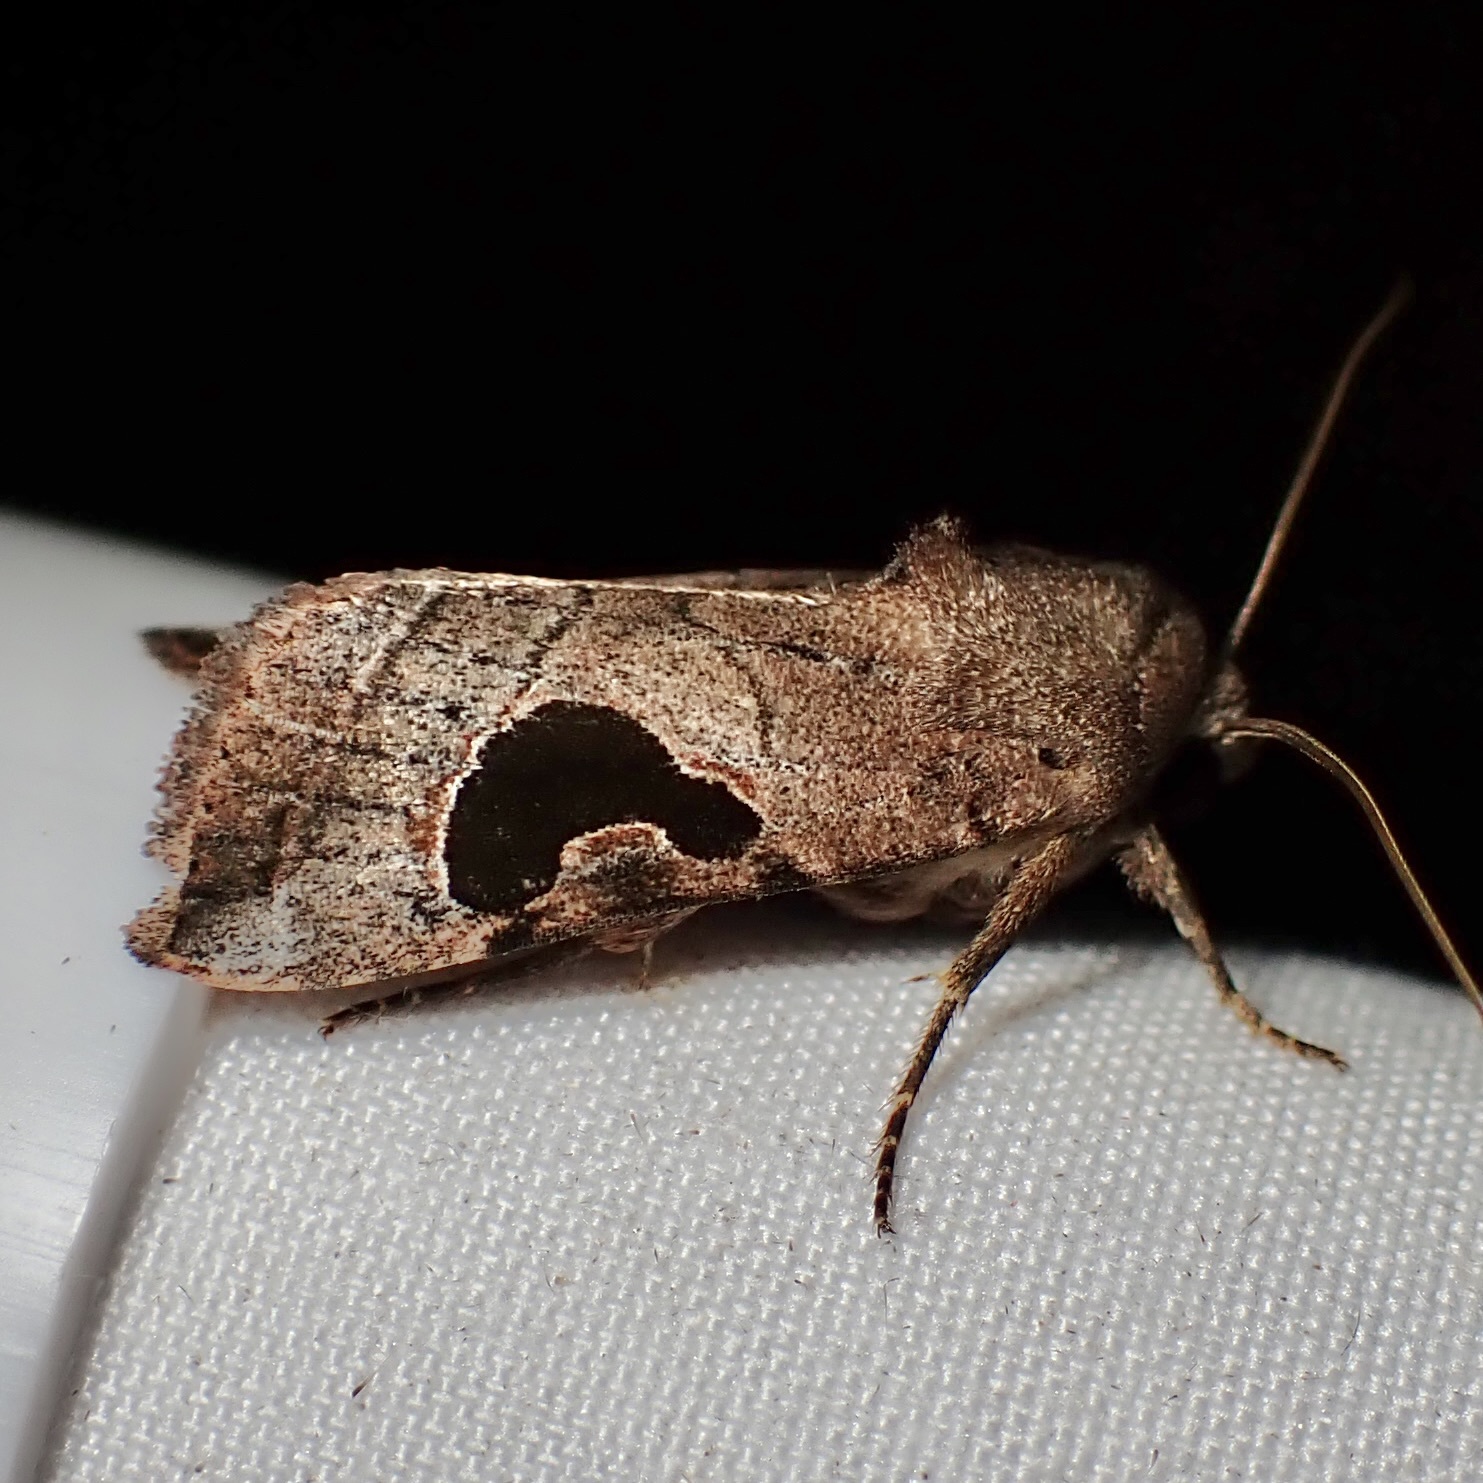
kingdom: Animalia
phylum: Arthropoda
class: Insecta
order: Lepidoptera
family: Noctuidae
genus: Eriopyga
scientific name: Eriopyga lunata
